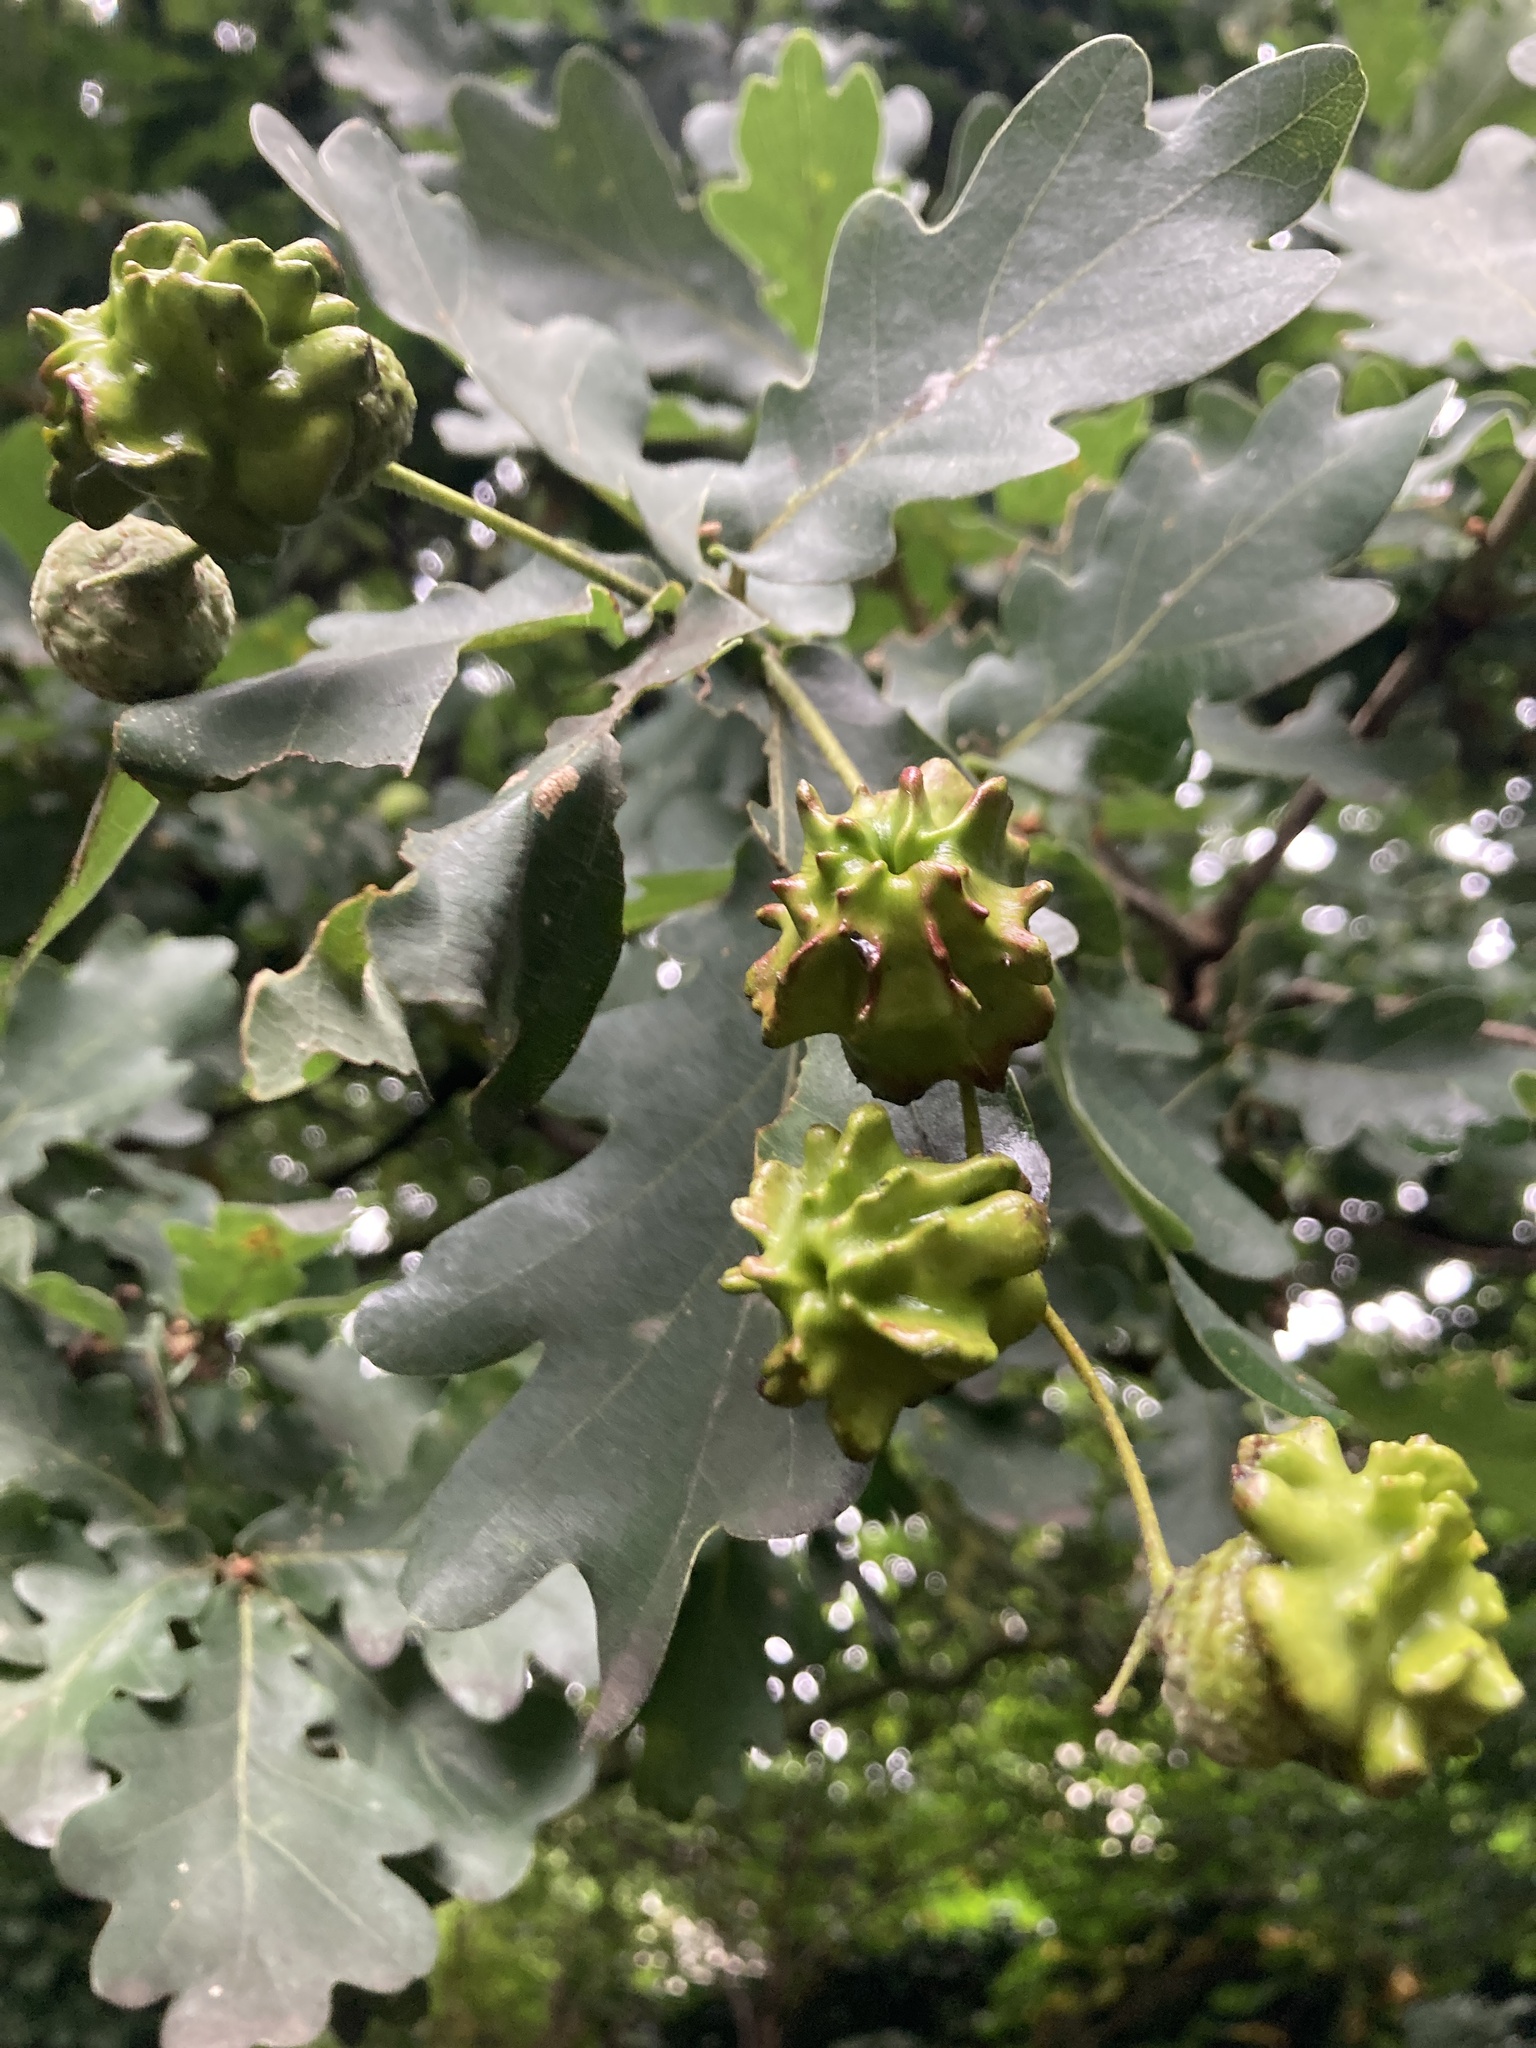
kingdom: Animalia
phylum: Arthropoda
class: Insecta
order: Hymenoptera
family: Cynipidae
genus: Andricus
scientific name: Andricus quercuscalicis
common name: Knopper gall
